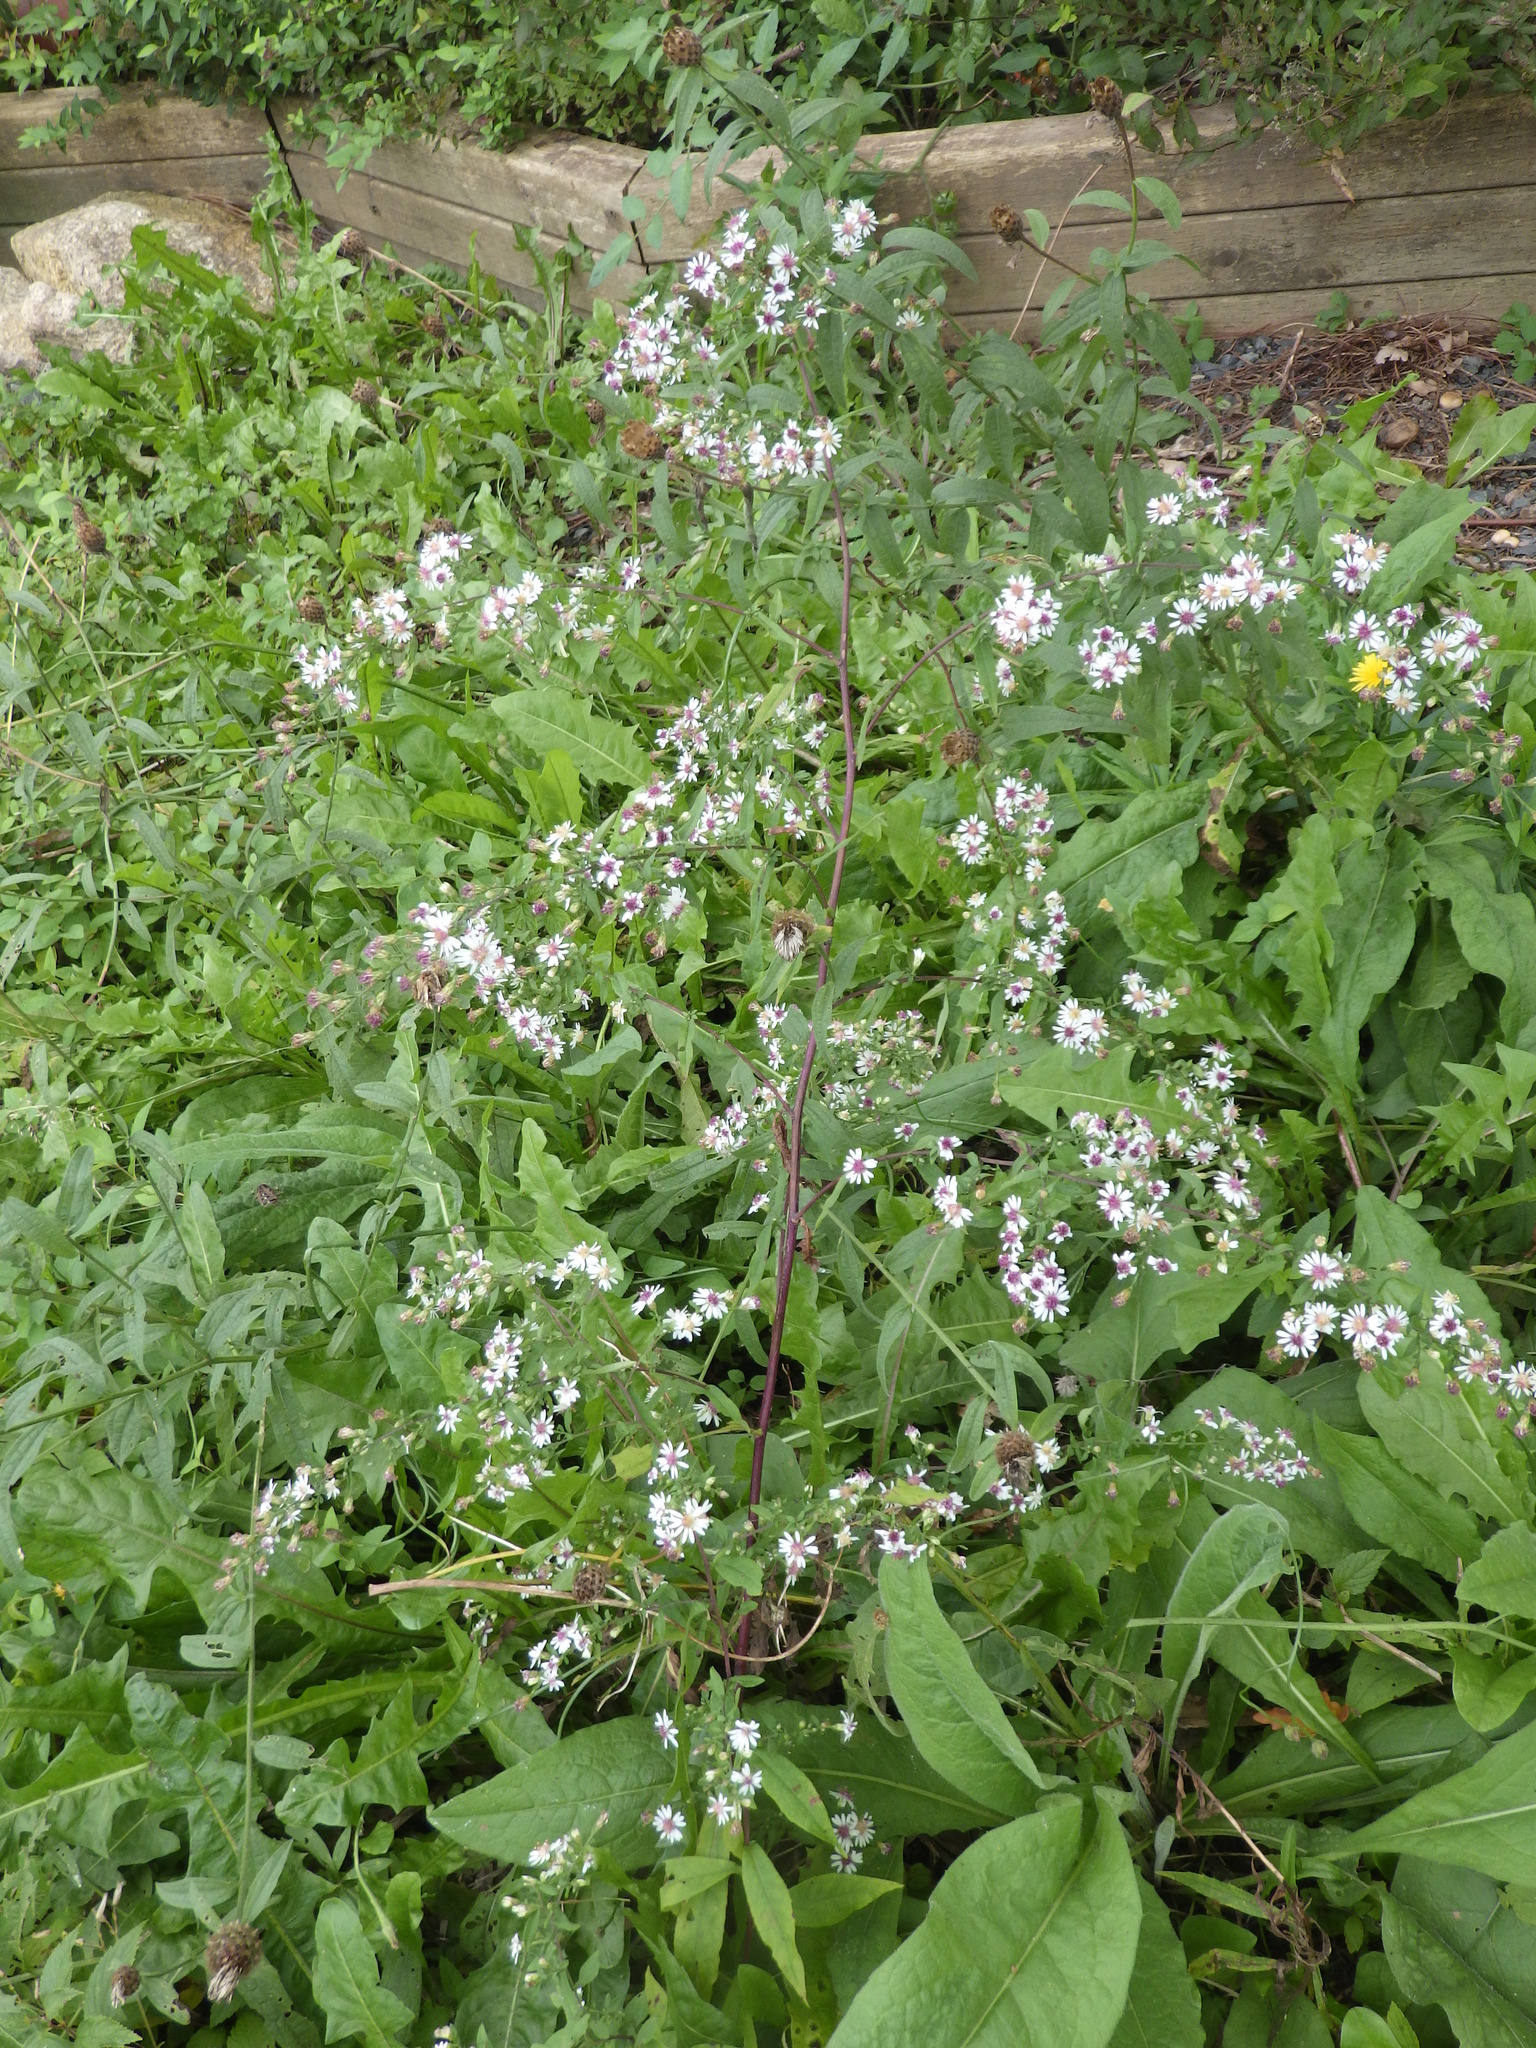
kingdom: Plantae
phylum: Tracheophyta
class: Magnoliopsida
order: Asterales
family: Asteraceae
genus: Symphyotrichum
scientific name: Symphyotrichum lateriflorum
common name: Calico aster
